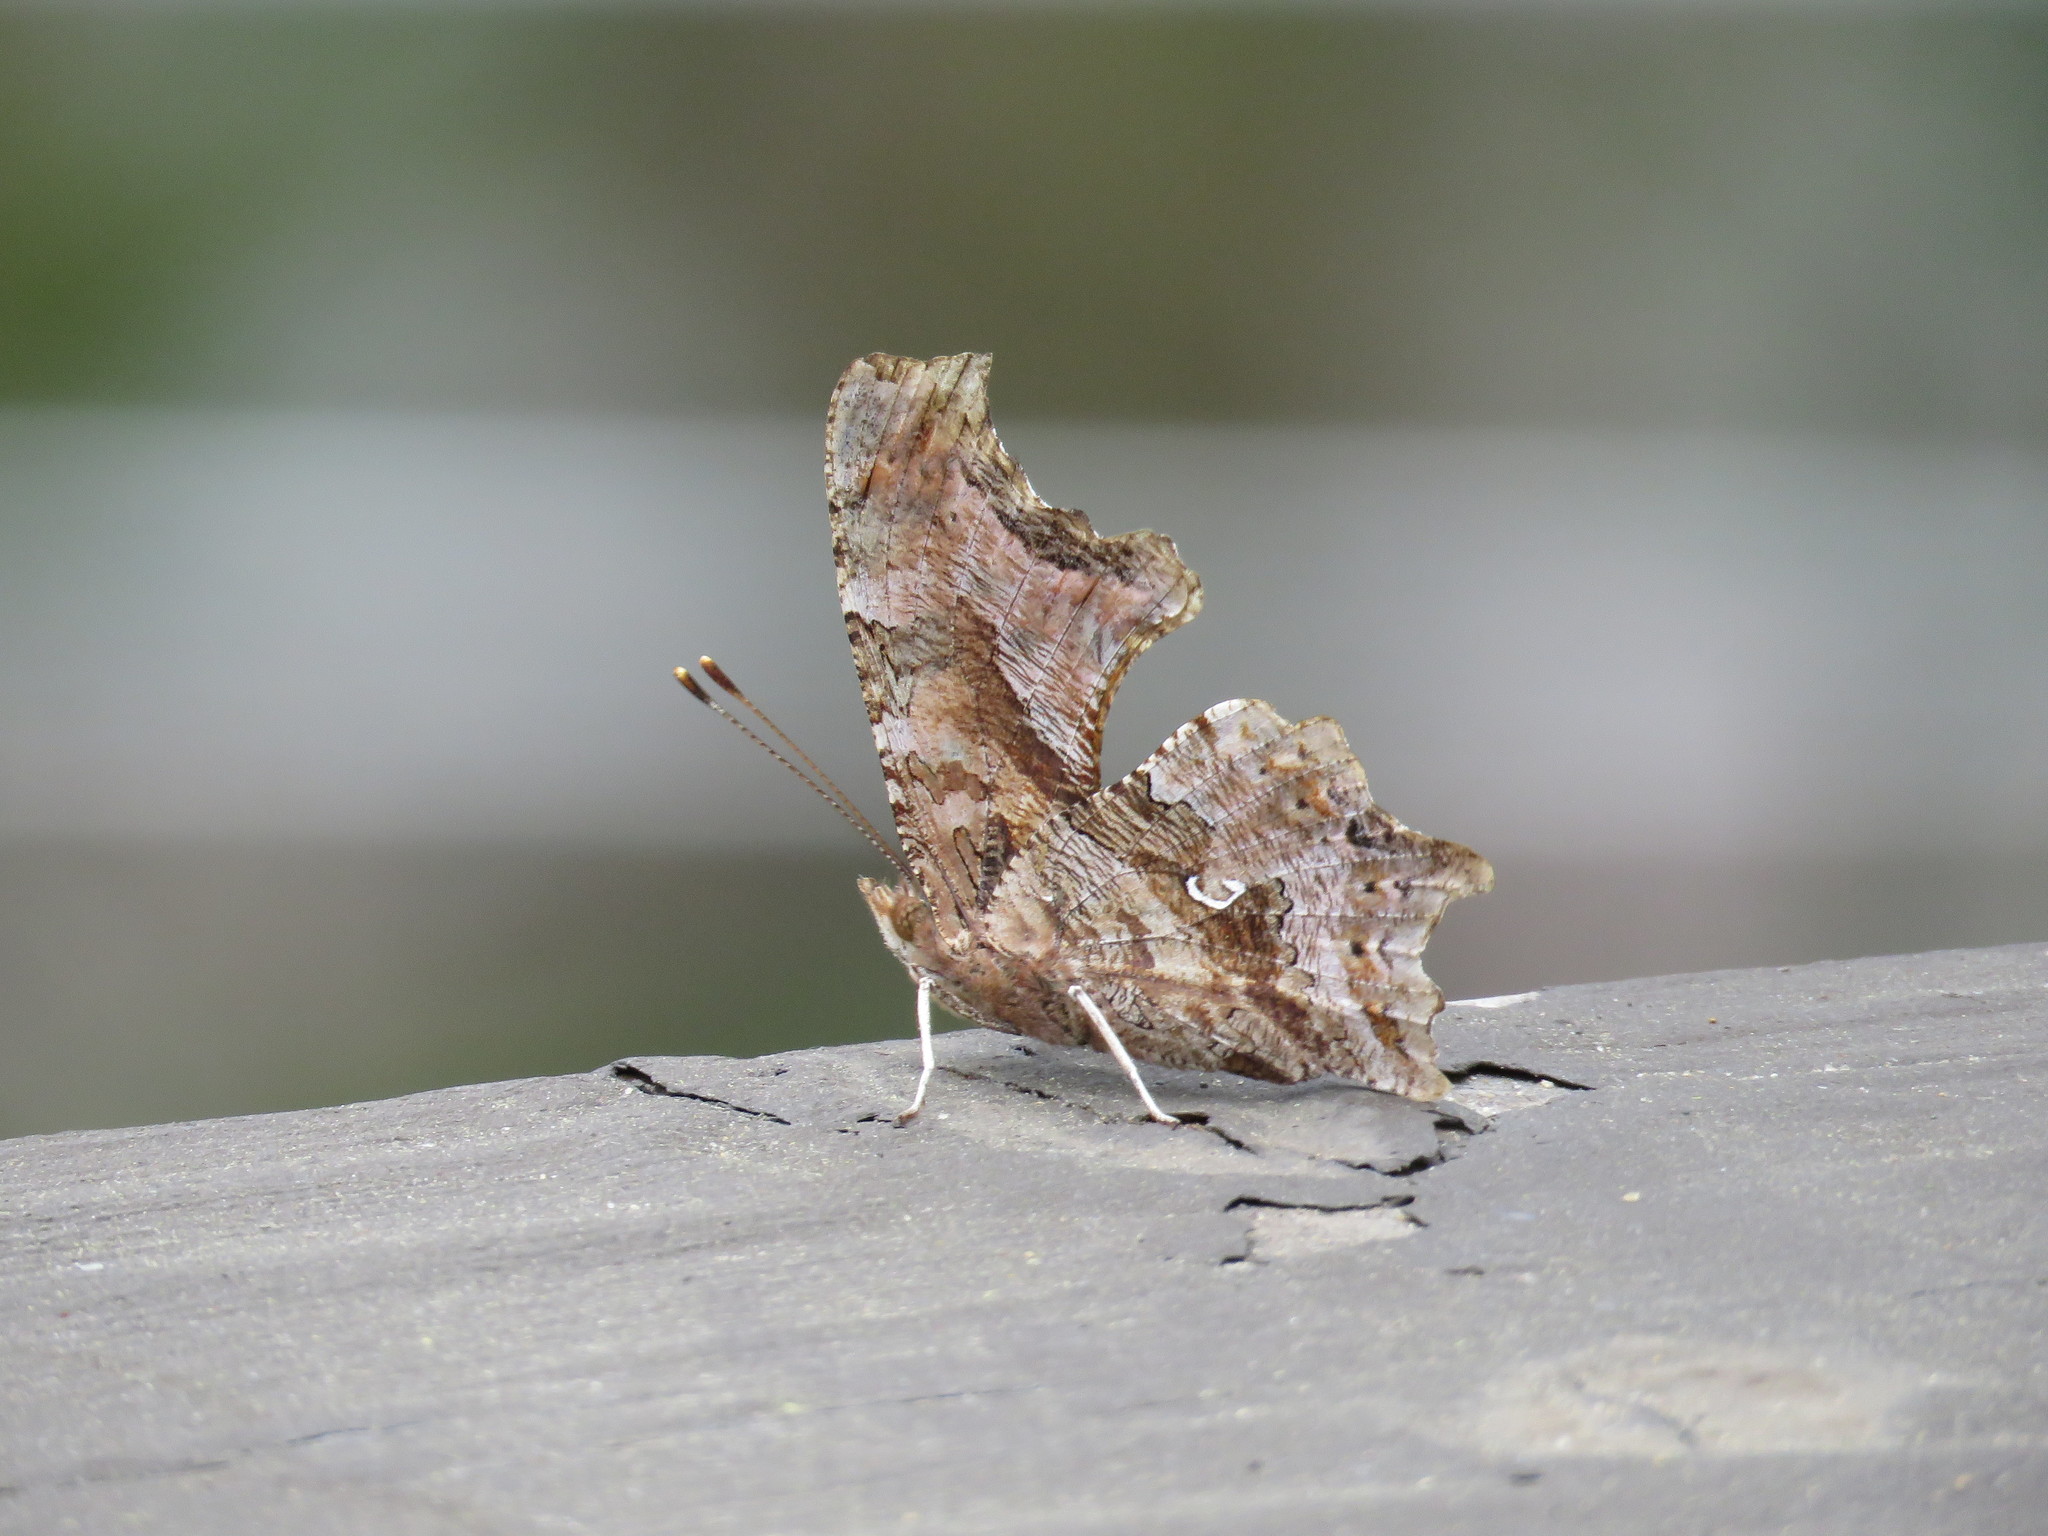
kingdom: Animalia
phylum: Arthropoda
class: Insecta
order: Lepidoptera
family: Nymphalidae
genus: Polygonia
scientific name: Polygonia comma
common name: Eastern comma
